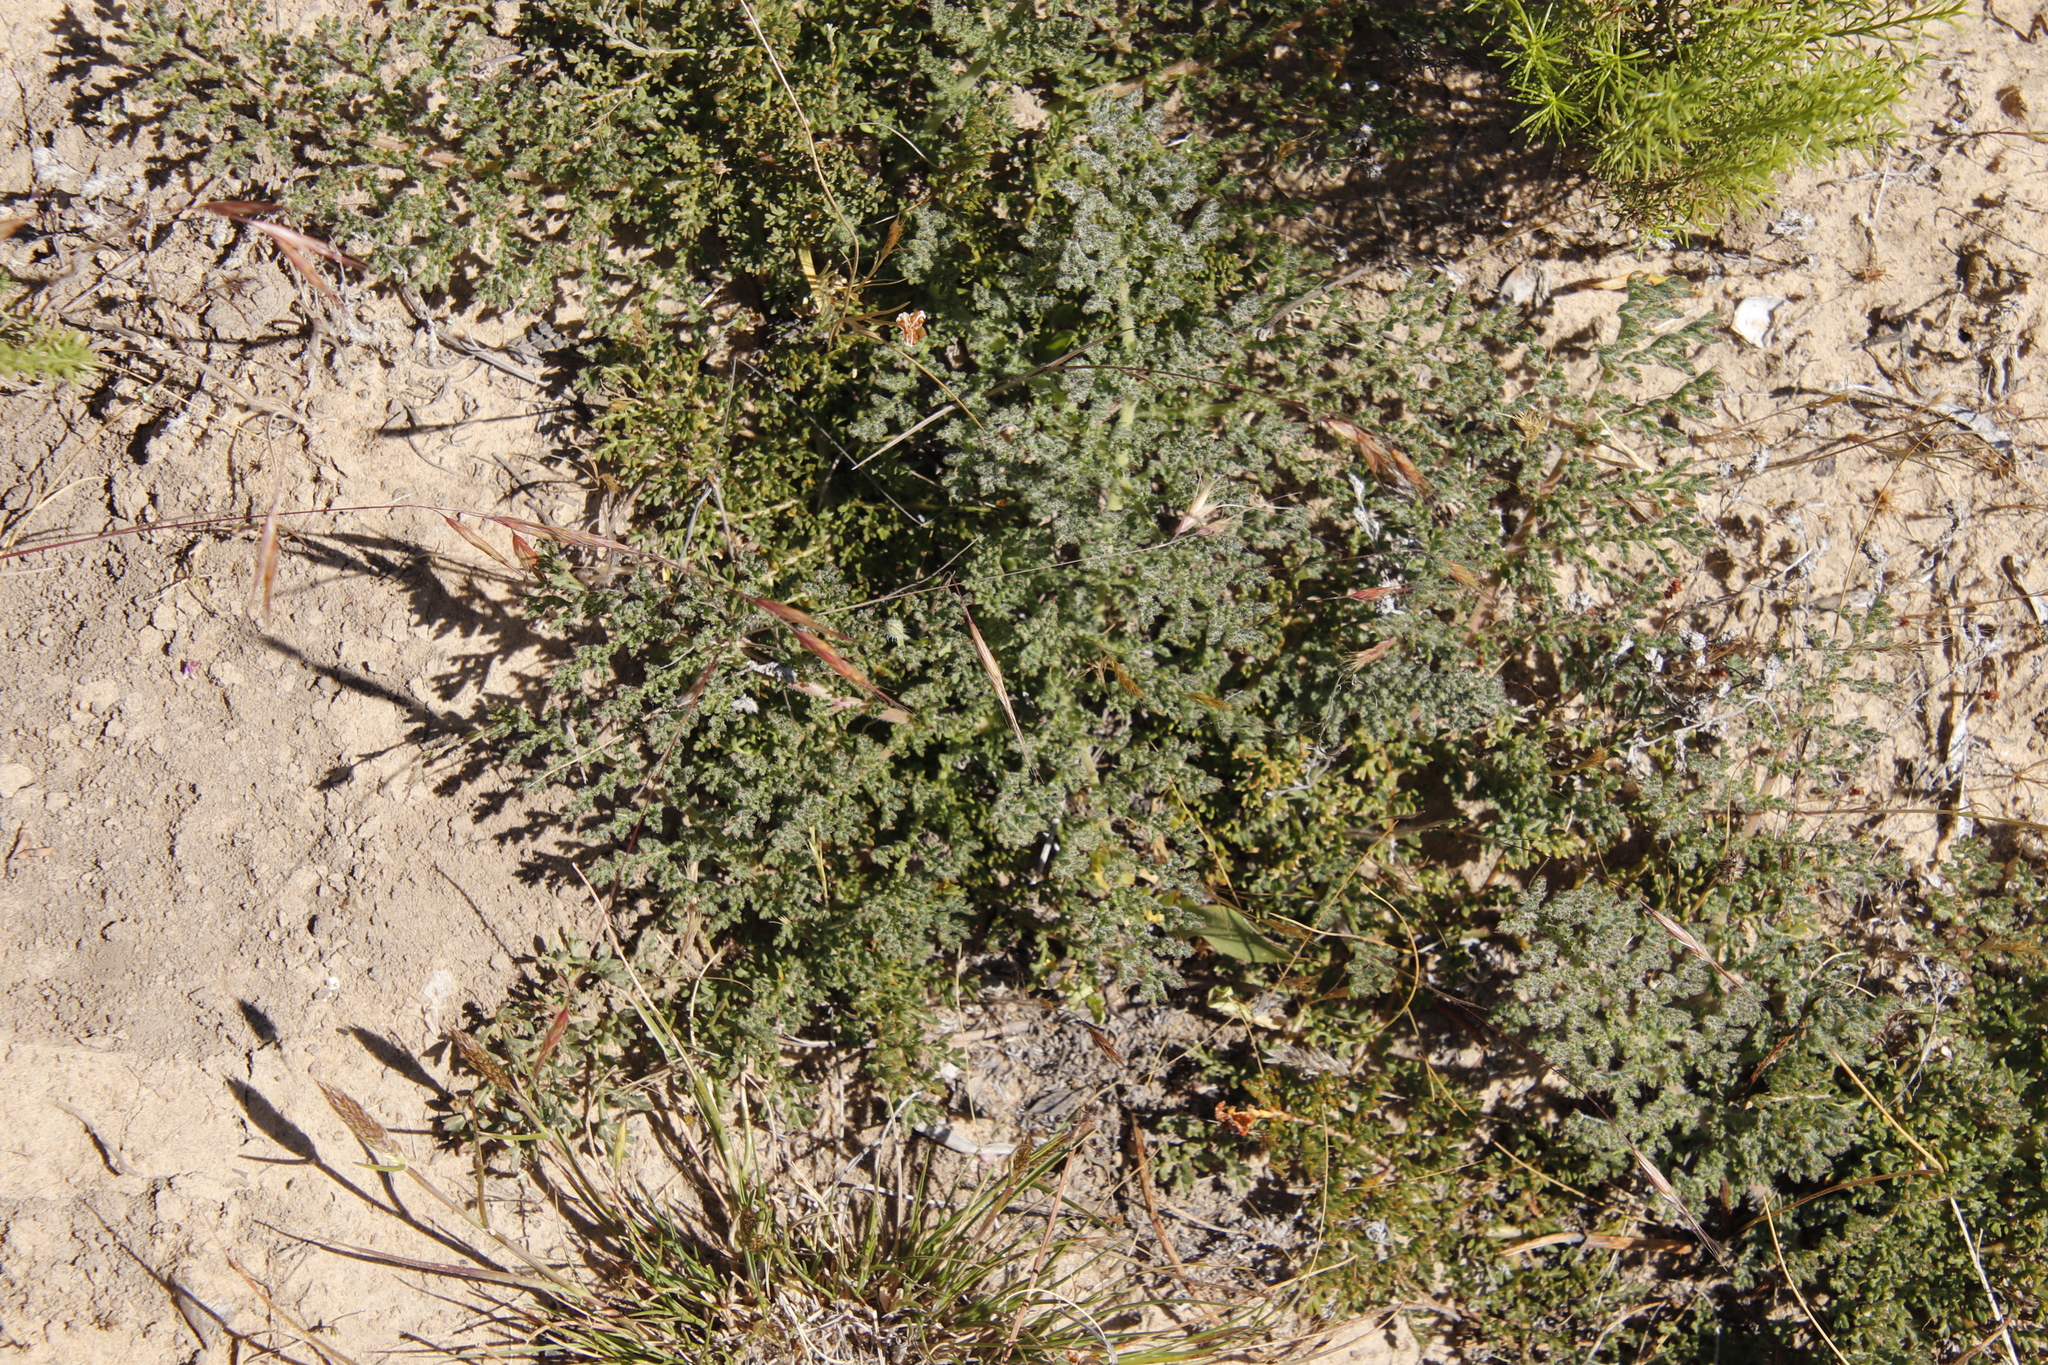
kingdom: Plantae
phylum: Tracheophyta
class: Magnoliopsida
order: Geraniales
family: Geraniaceae
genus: Pelargonium
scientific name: Pelargonium triste
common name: Night-scent pelargonium
